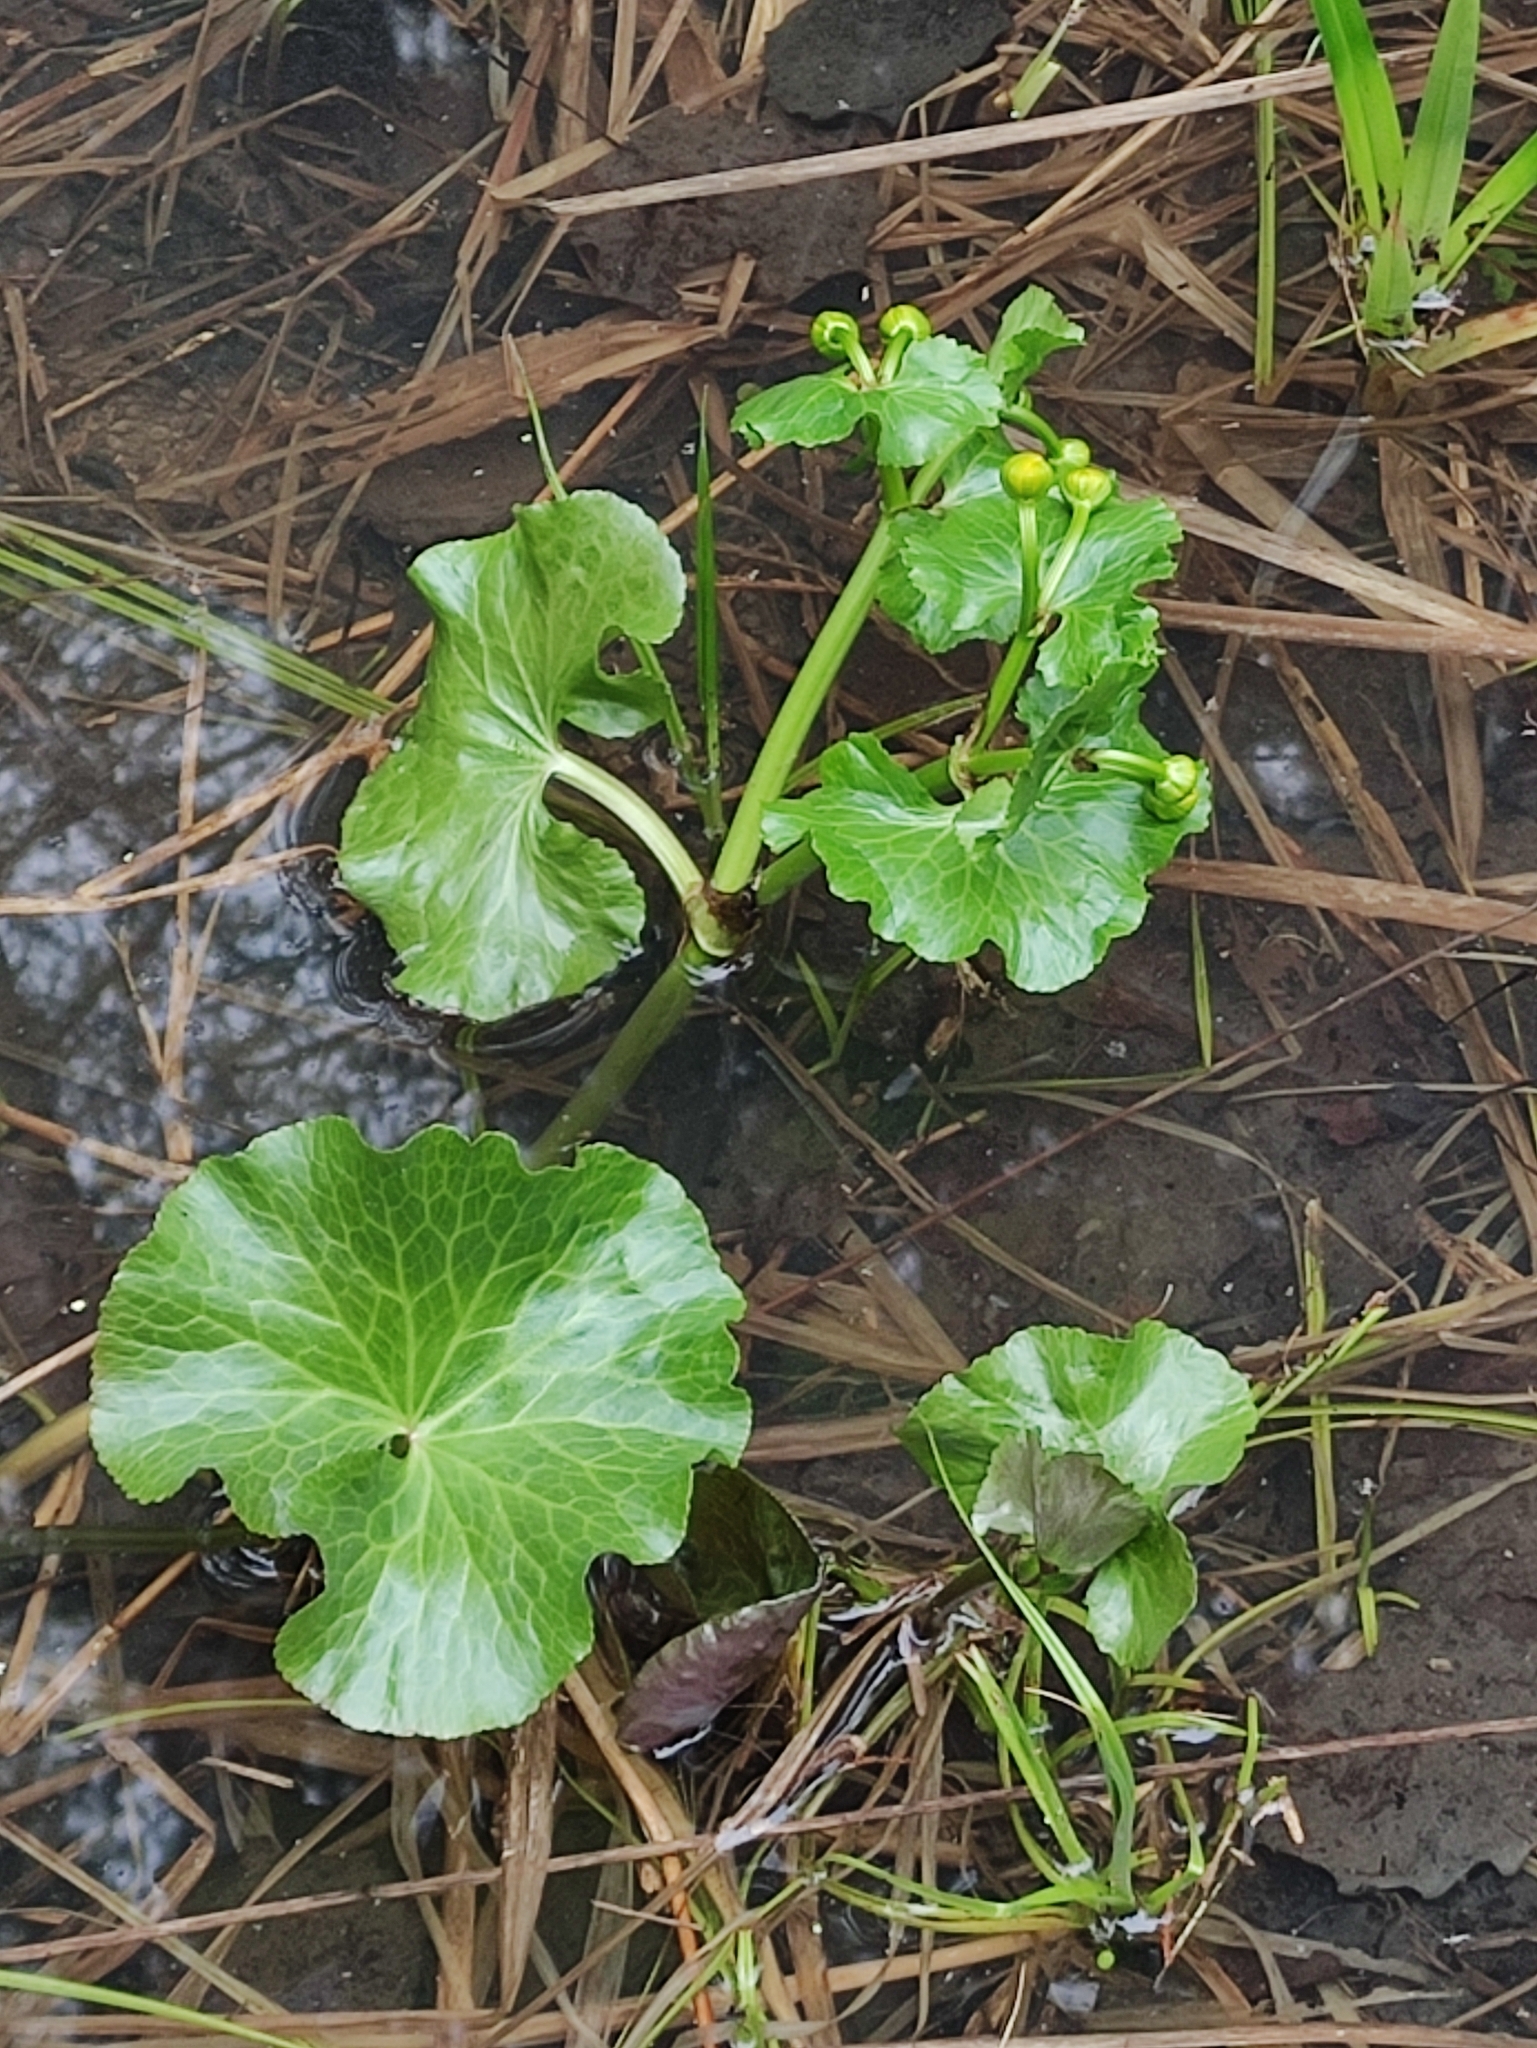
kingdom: Plantae
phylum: Tracheophyta
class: Magnoliopsida
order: Ranunculales
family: Ranunculaceae
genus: Caltha
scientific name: Caltha palustris
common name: Marsh marigold
